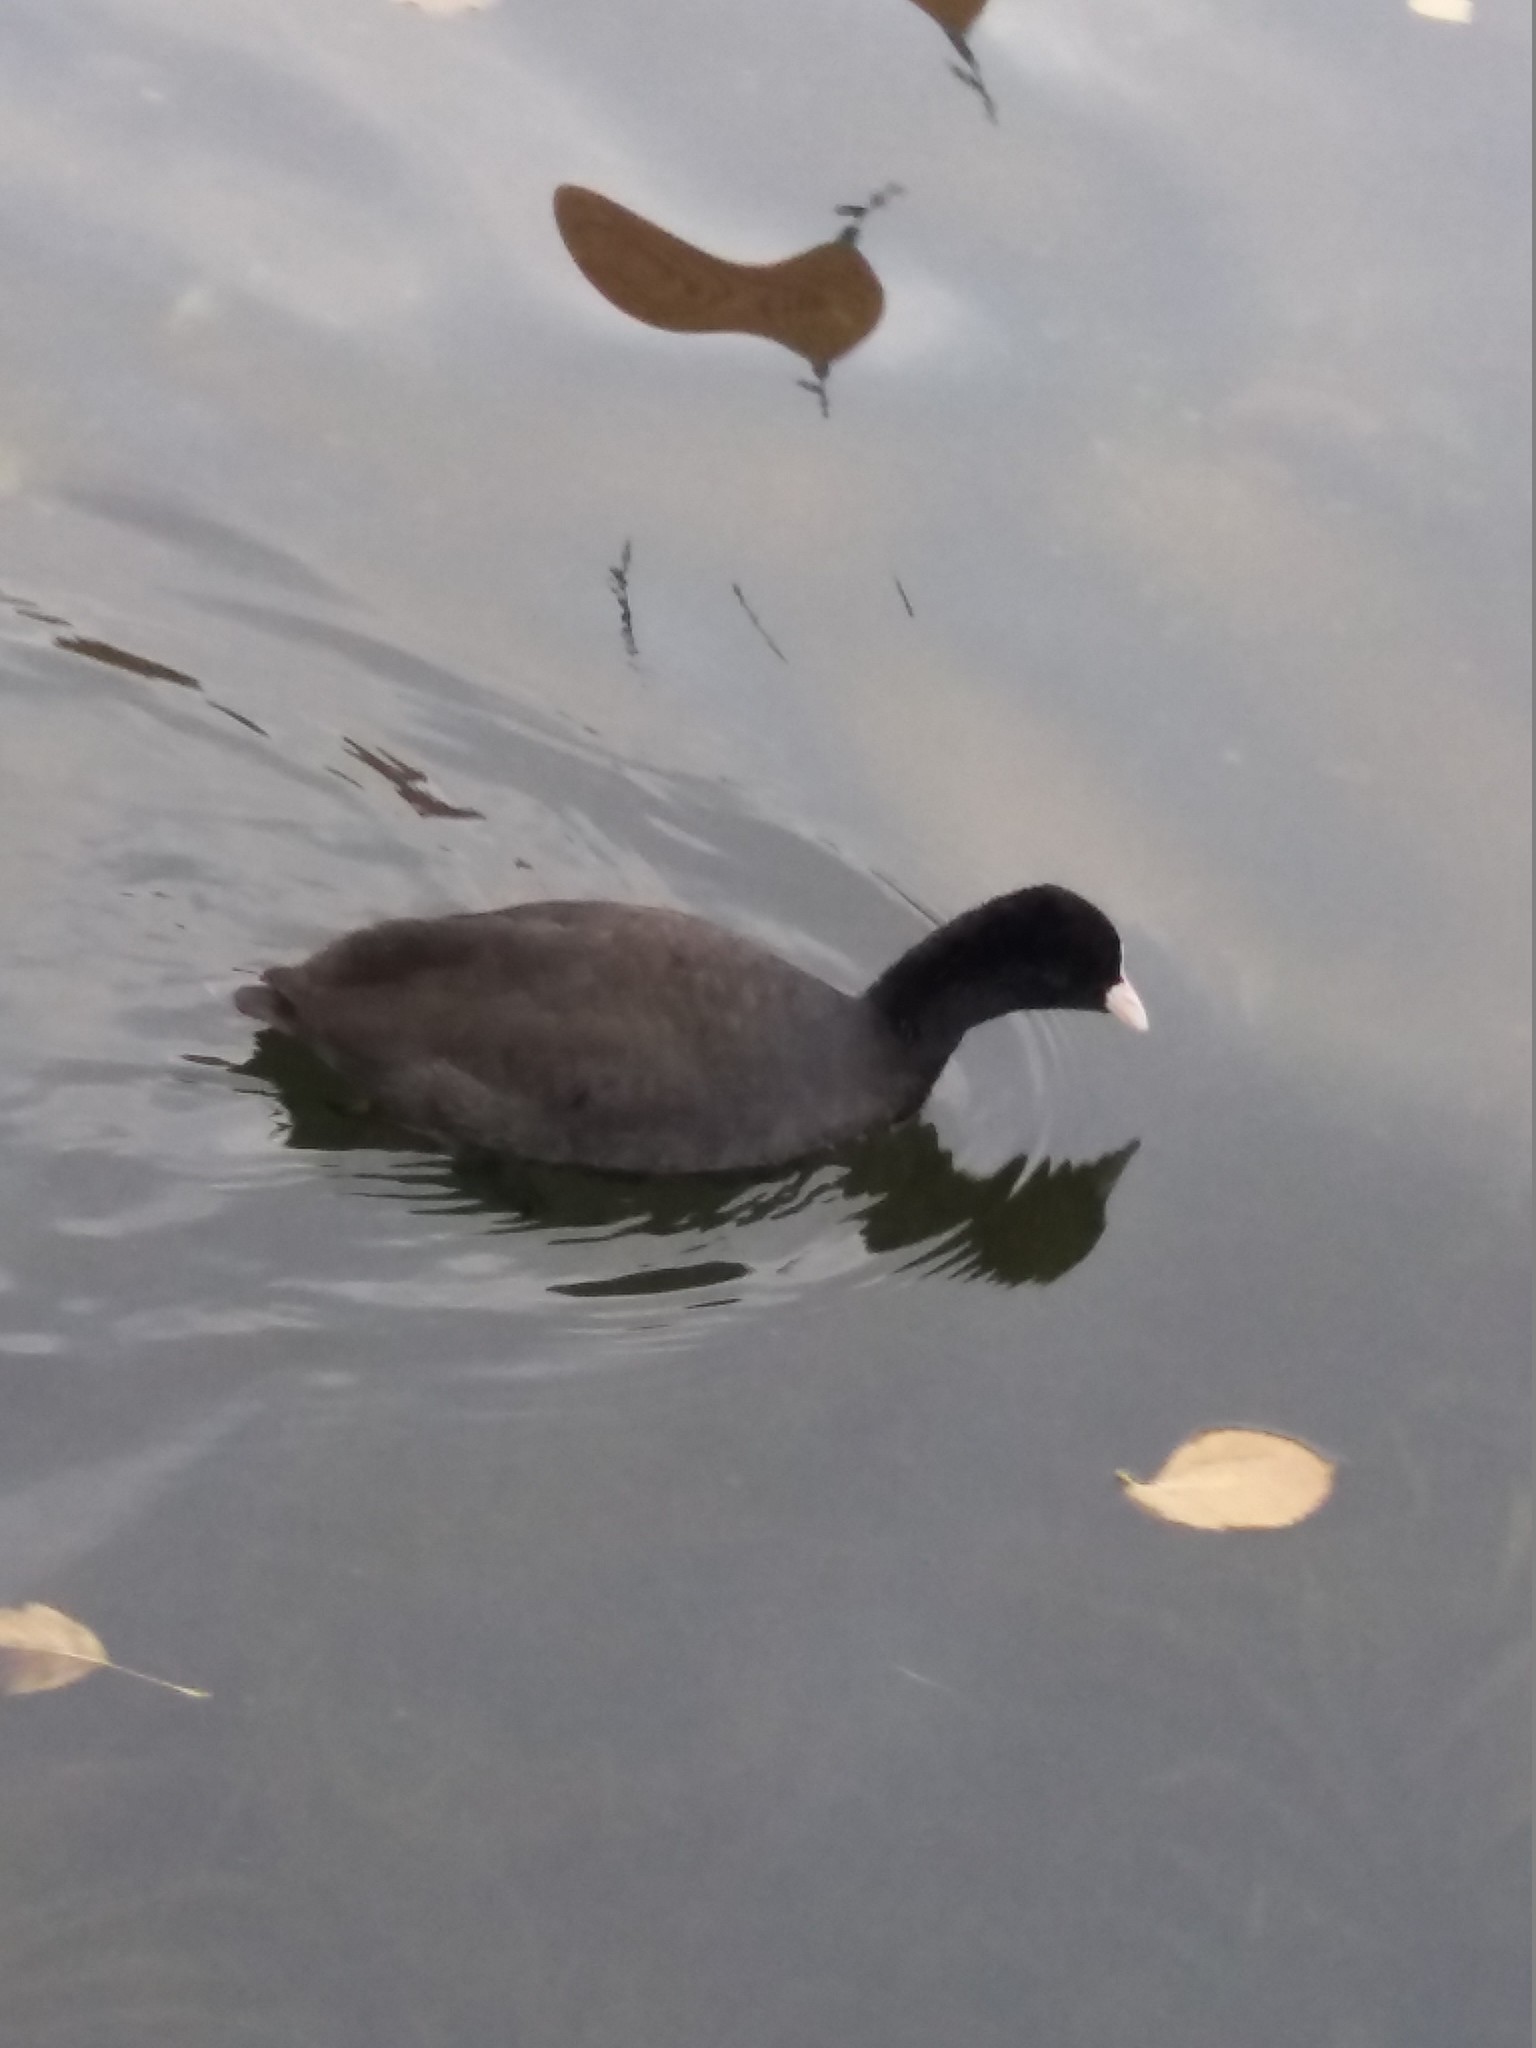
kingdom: Animalia
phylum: Chordata
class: Aves
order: Gruiformes
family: Rallidae
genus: Fulica
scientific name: Fulica atra
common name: Eurasian coot
